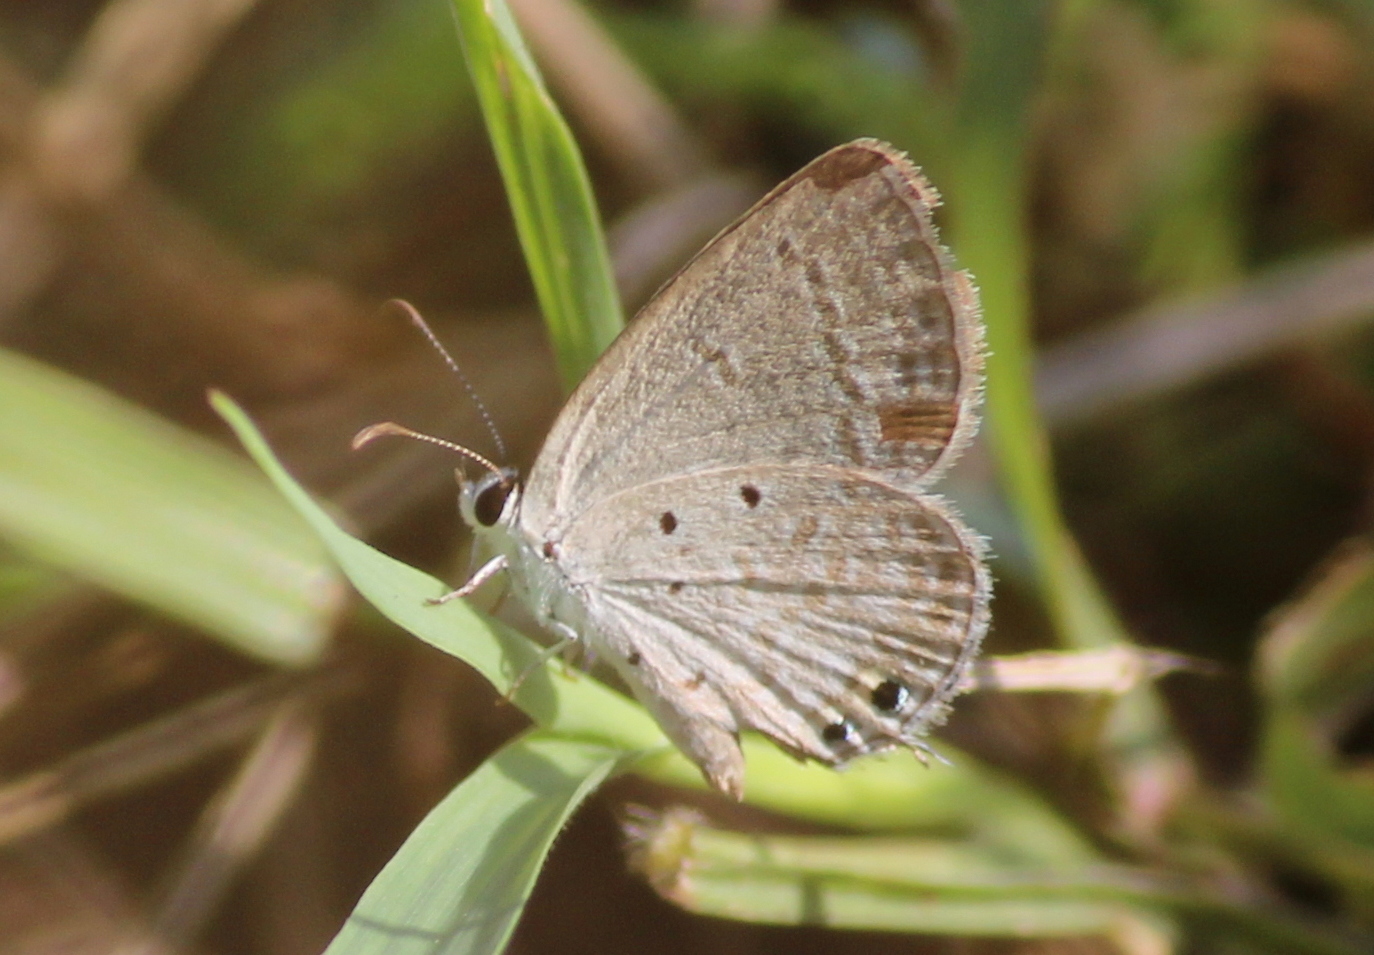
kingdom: Animalia
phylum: Arthropoda
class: Insecta
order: Lepidoptera
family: Lycaenidae
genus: Euchrysops
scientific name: Euchrysops cnejus
